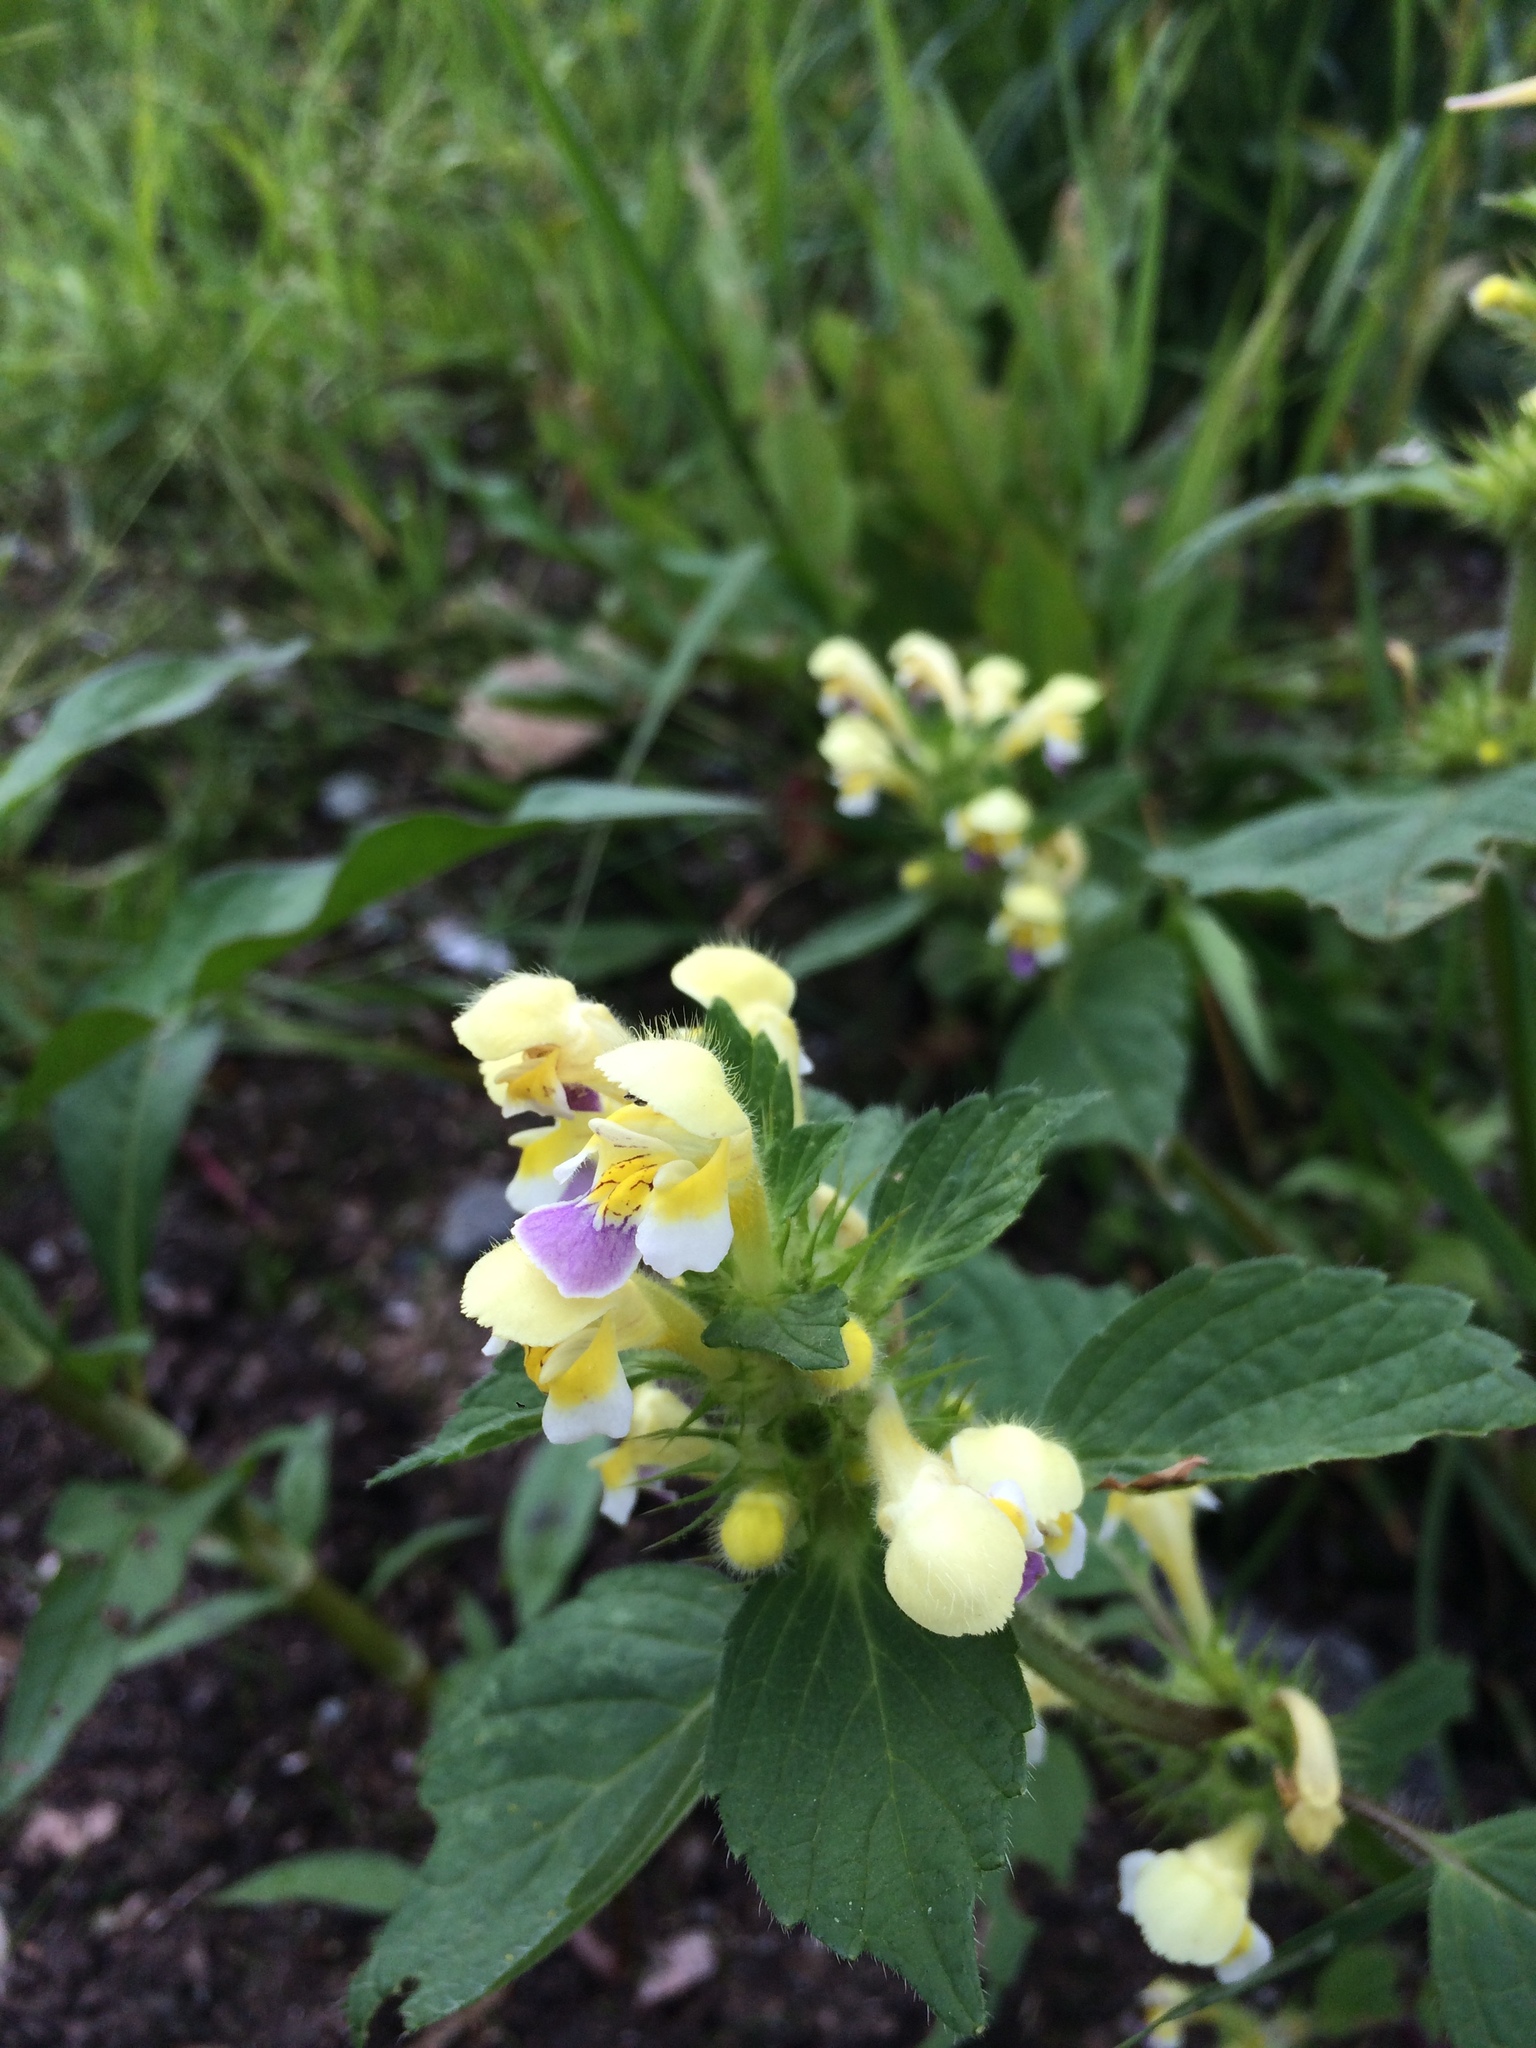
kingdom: Plantae
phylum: Tracheophyta
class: Magnoliopsida
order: Lamiales
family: Lamiaceae
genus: Galeopsis
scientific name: Galeopsis speciosa
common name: Large-flowered hemp-nettle
